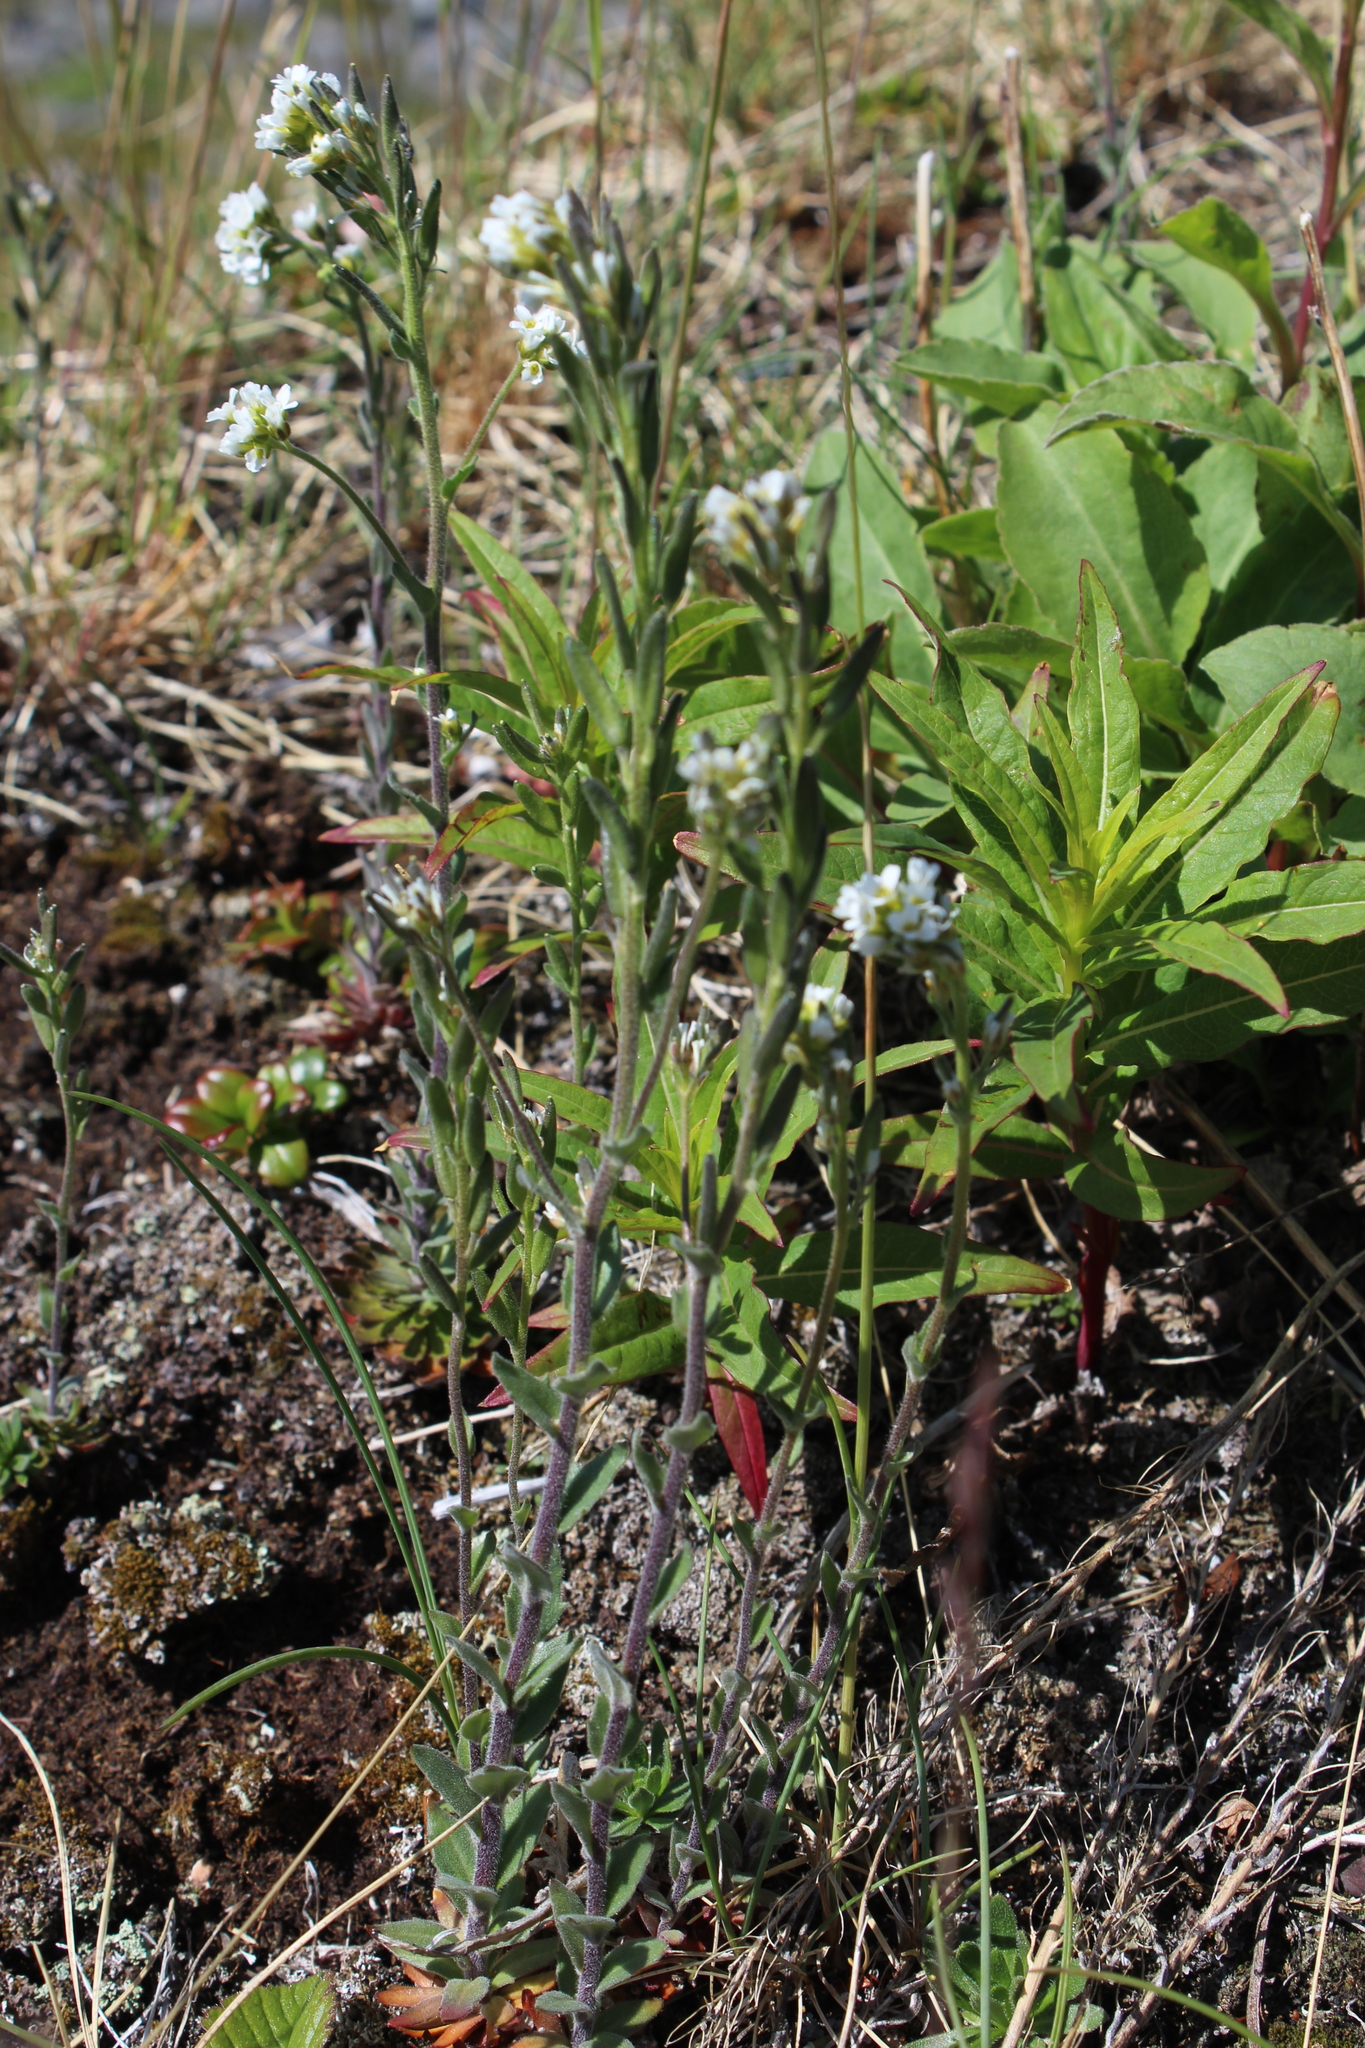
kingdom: Plantae
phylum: Tracheophyta
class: Magnoliopsida
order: Brassicales
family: Brassicaceae
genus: Draba
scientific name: Draba incana
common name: Hoary whitlow-grass
